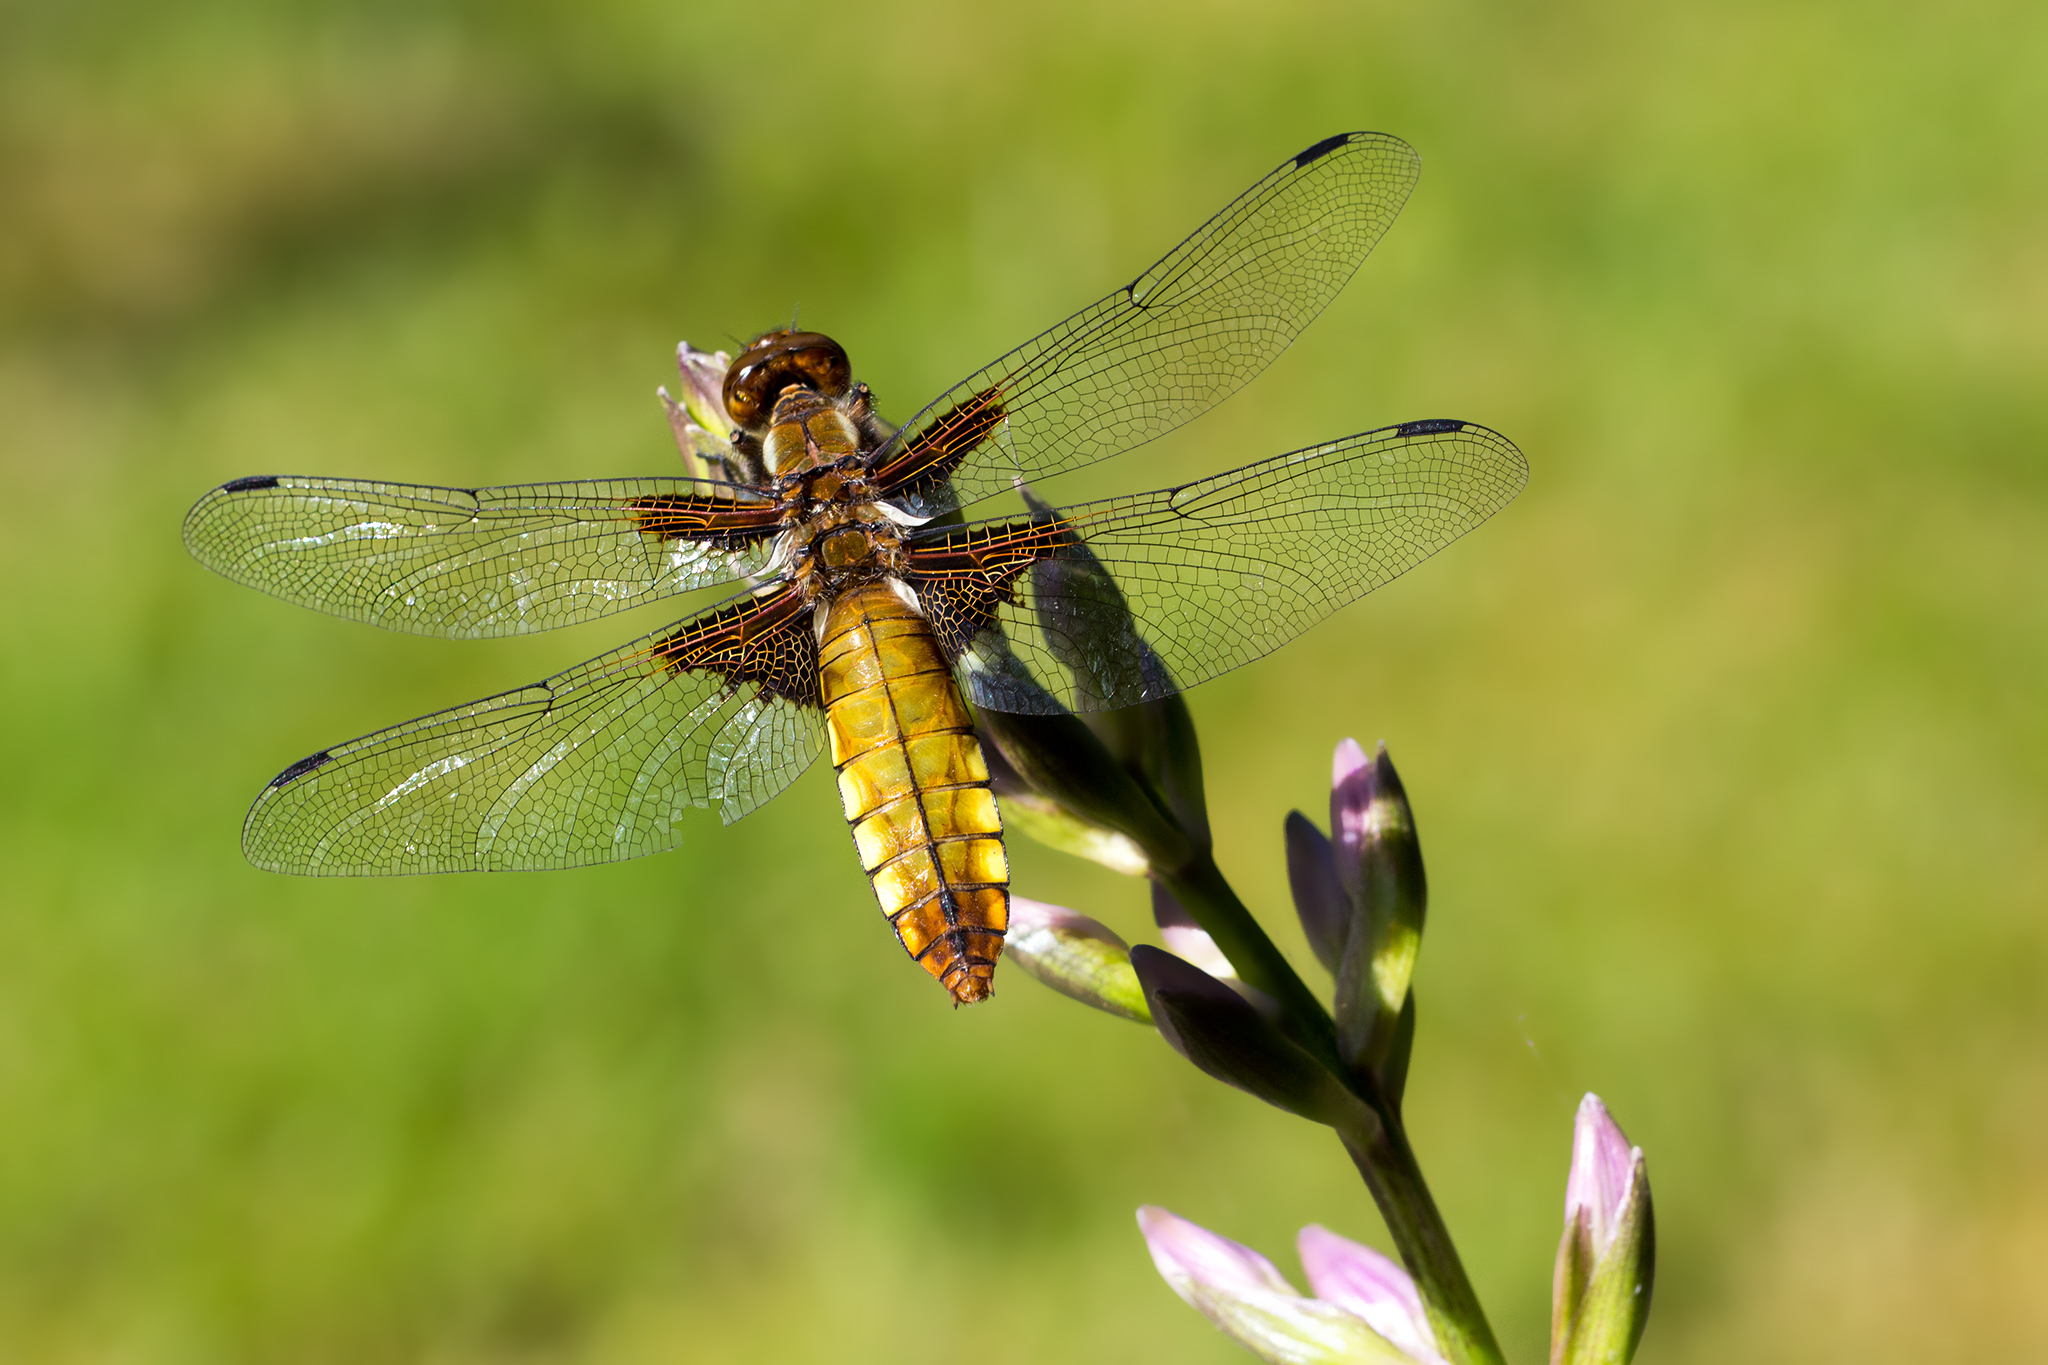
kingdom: Animalia
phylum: Arthropoda
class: Insecta
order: Odonata
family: Libellulidae
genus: Libellula
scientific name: Libellula depressa
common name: Broad-bodied chaser
